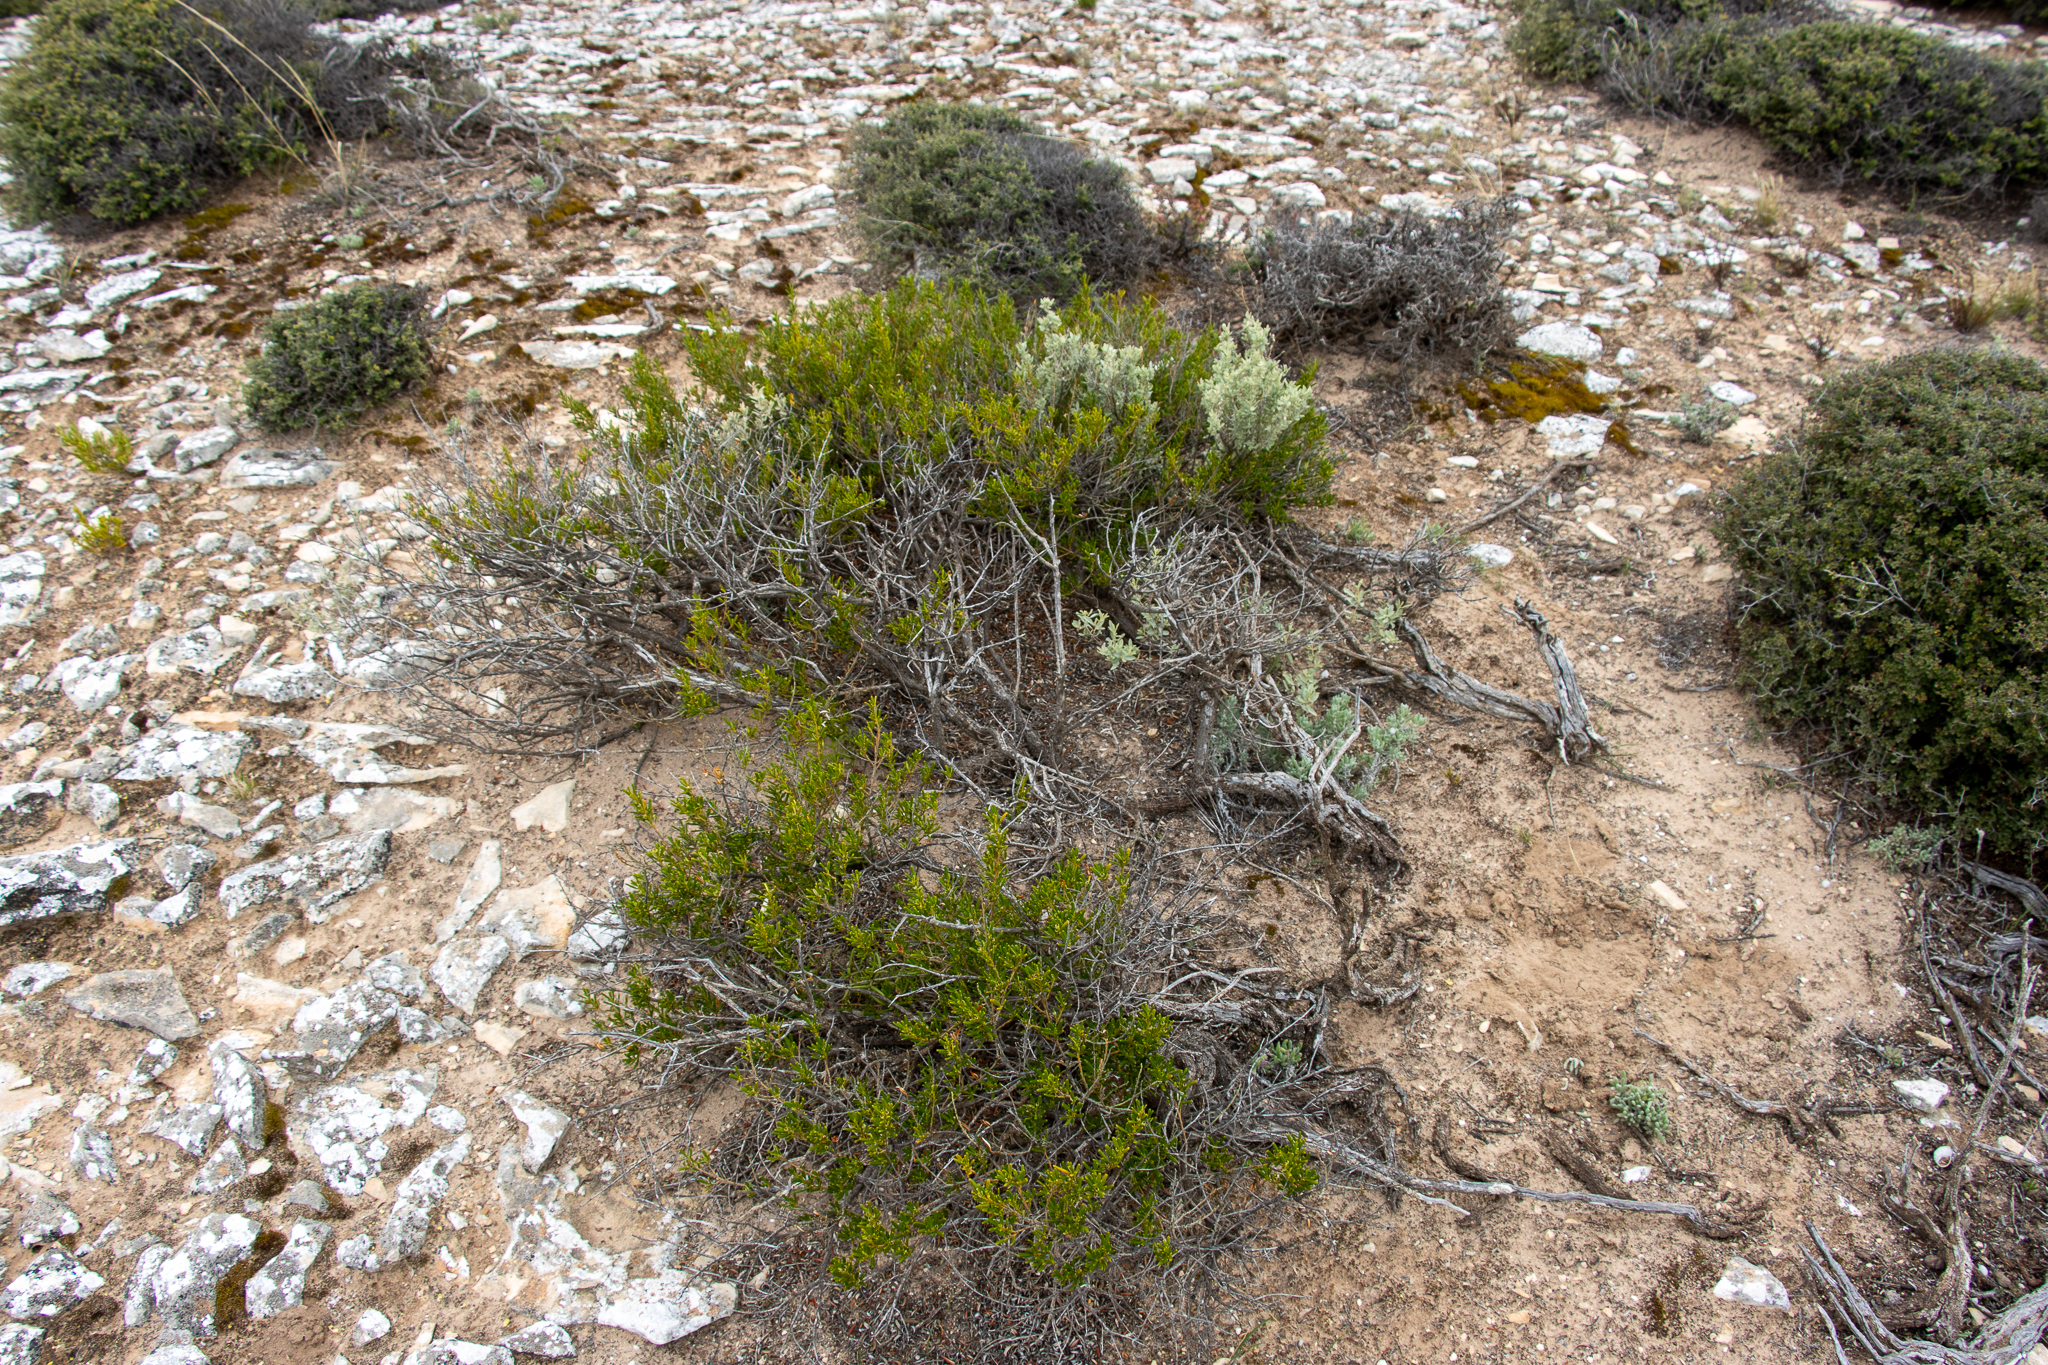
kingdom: Plantae
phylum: Tracheophyta
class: Magnoliopsida
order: Malpighiales
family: Euphorbiaceae
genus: Beyeria
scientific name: Beyeria lechenaultii
